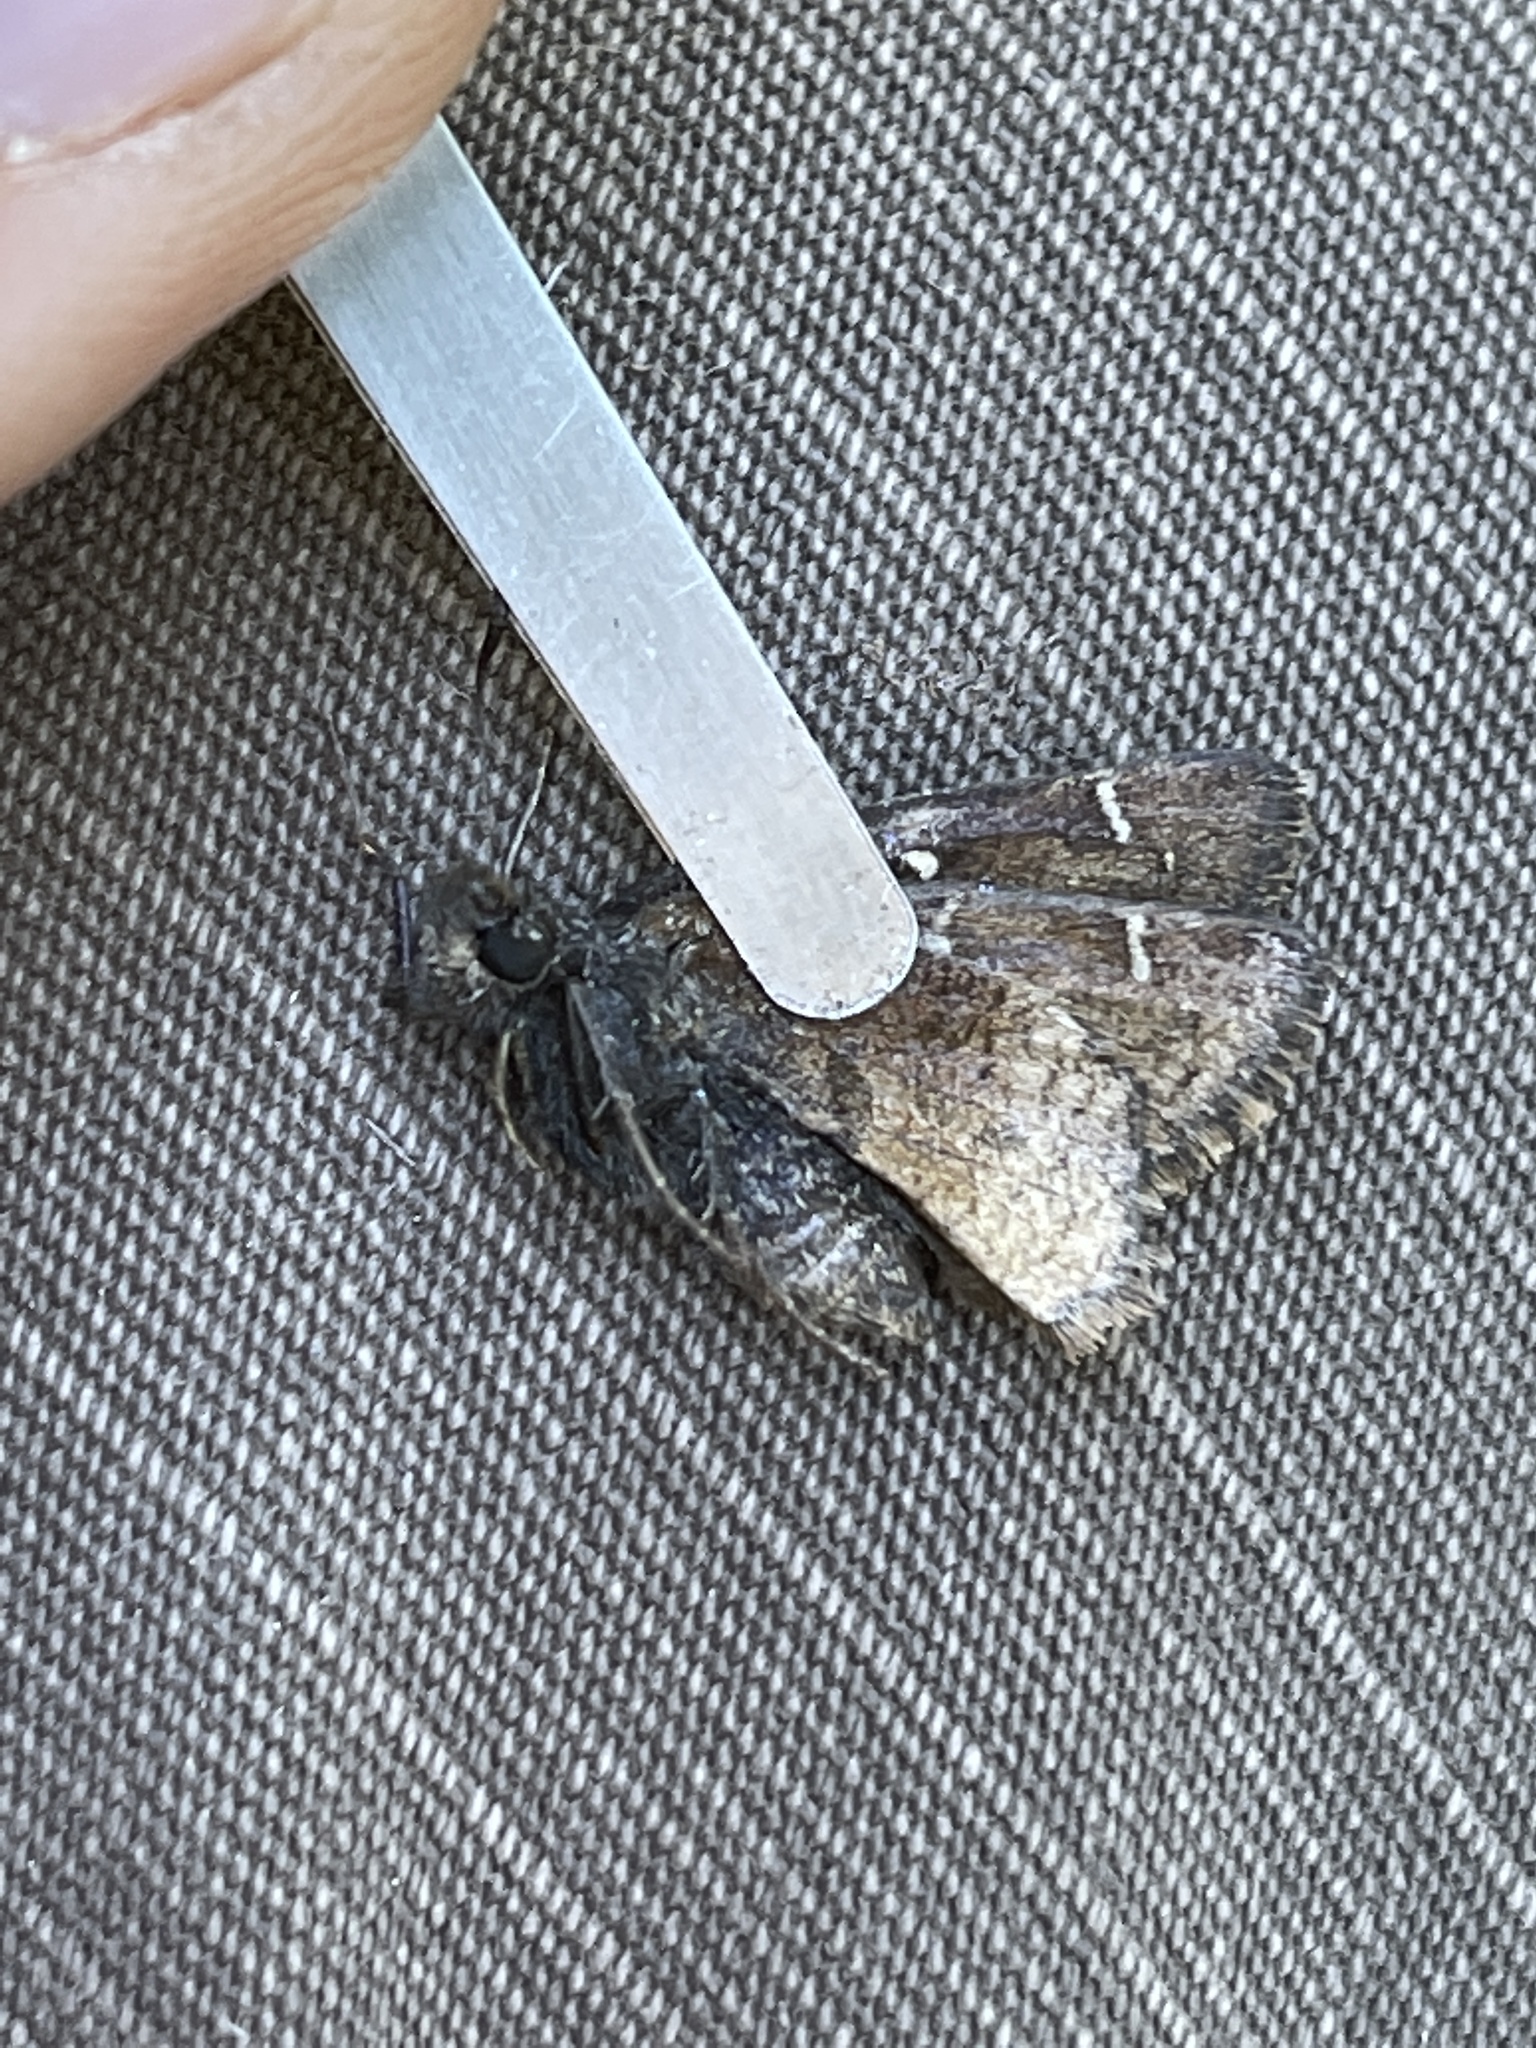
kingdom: Animalia
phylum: Arthropoda
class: Insecta
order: Lepidoptera
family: Hesperiidae
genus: Thorybes
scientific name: Thorybes mexicana
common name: Mexican cloudywing
